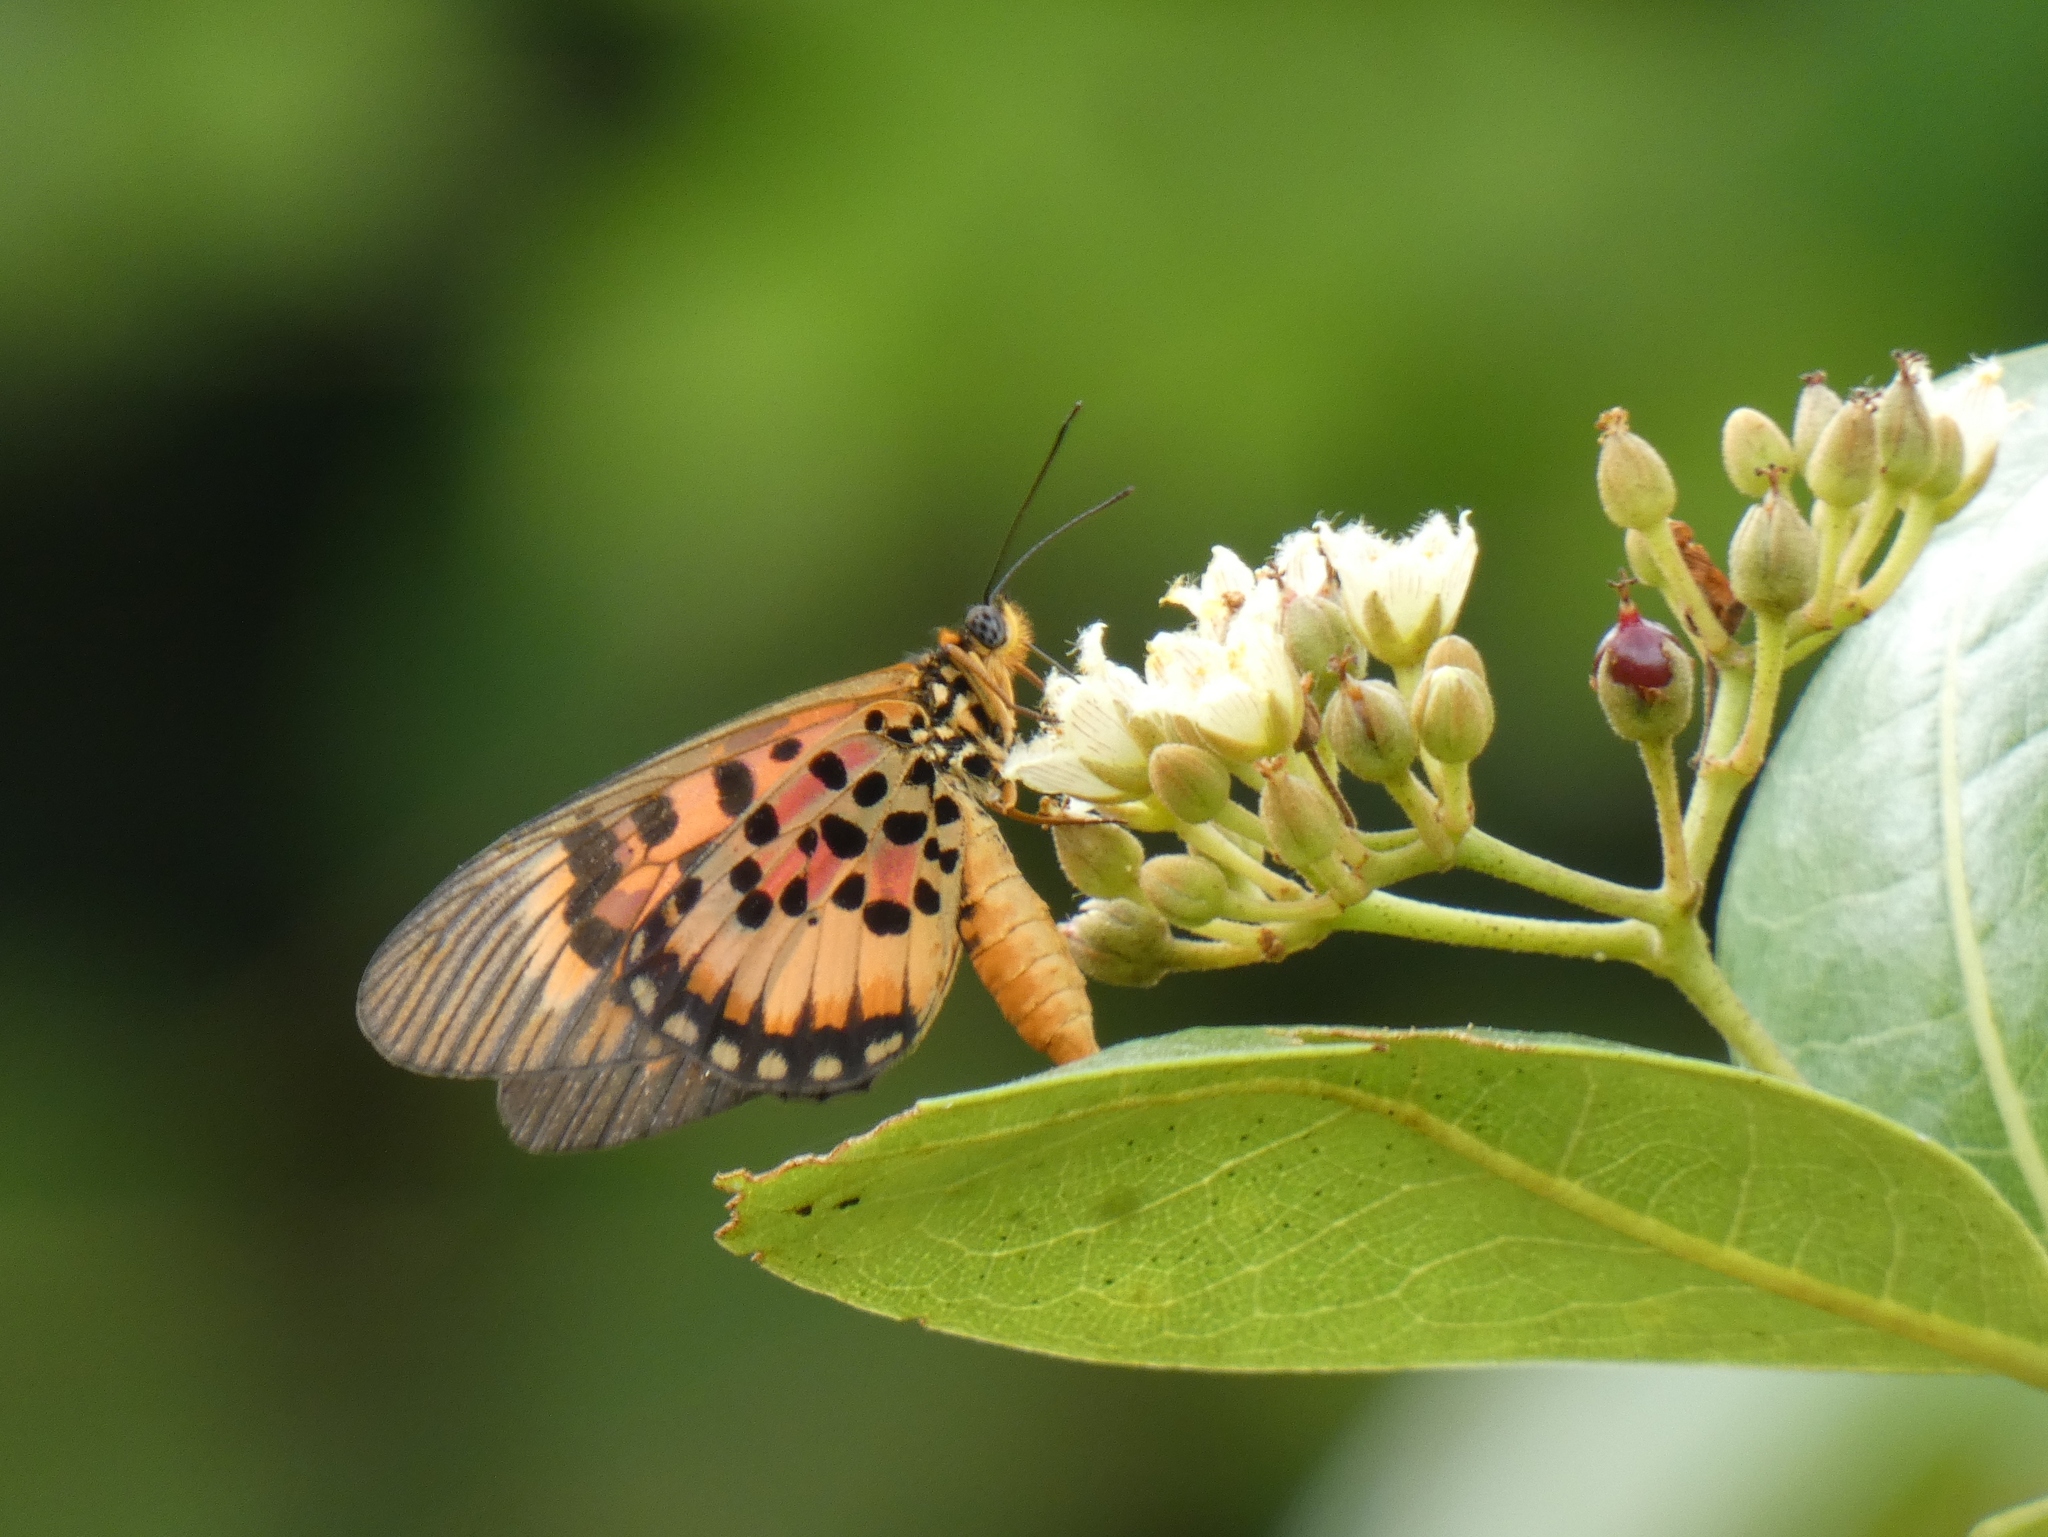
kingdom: Animalia
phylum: Arthropoda
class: Insecta
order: Lepidoptera
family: Nymphalidae
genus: Rubraea
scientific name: Rubraea
